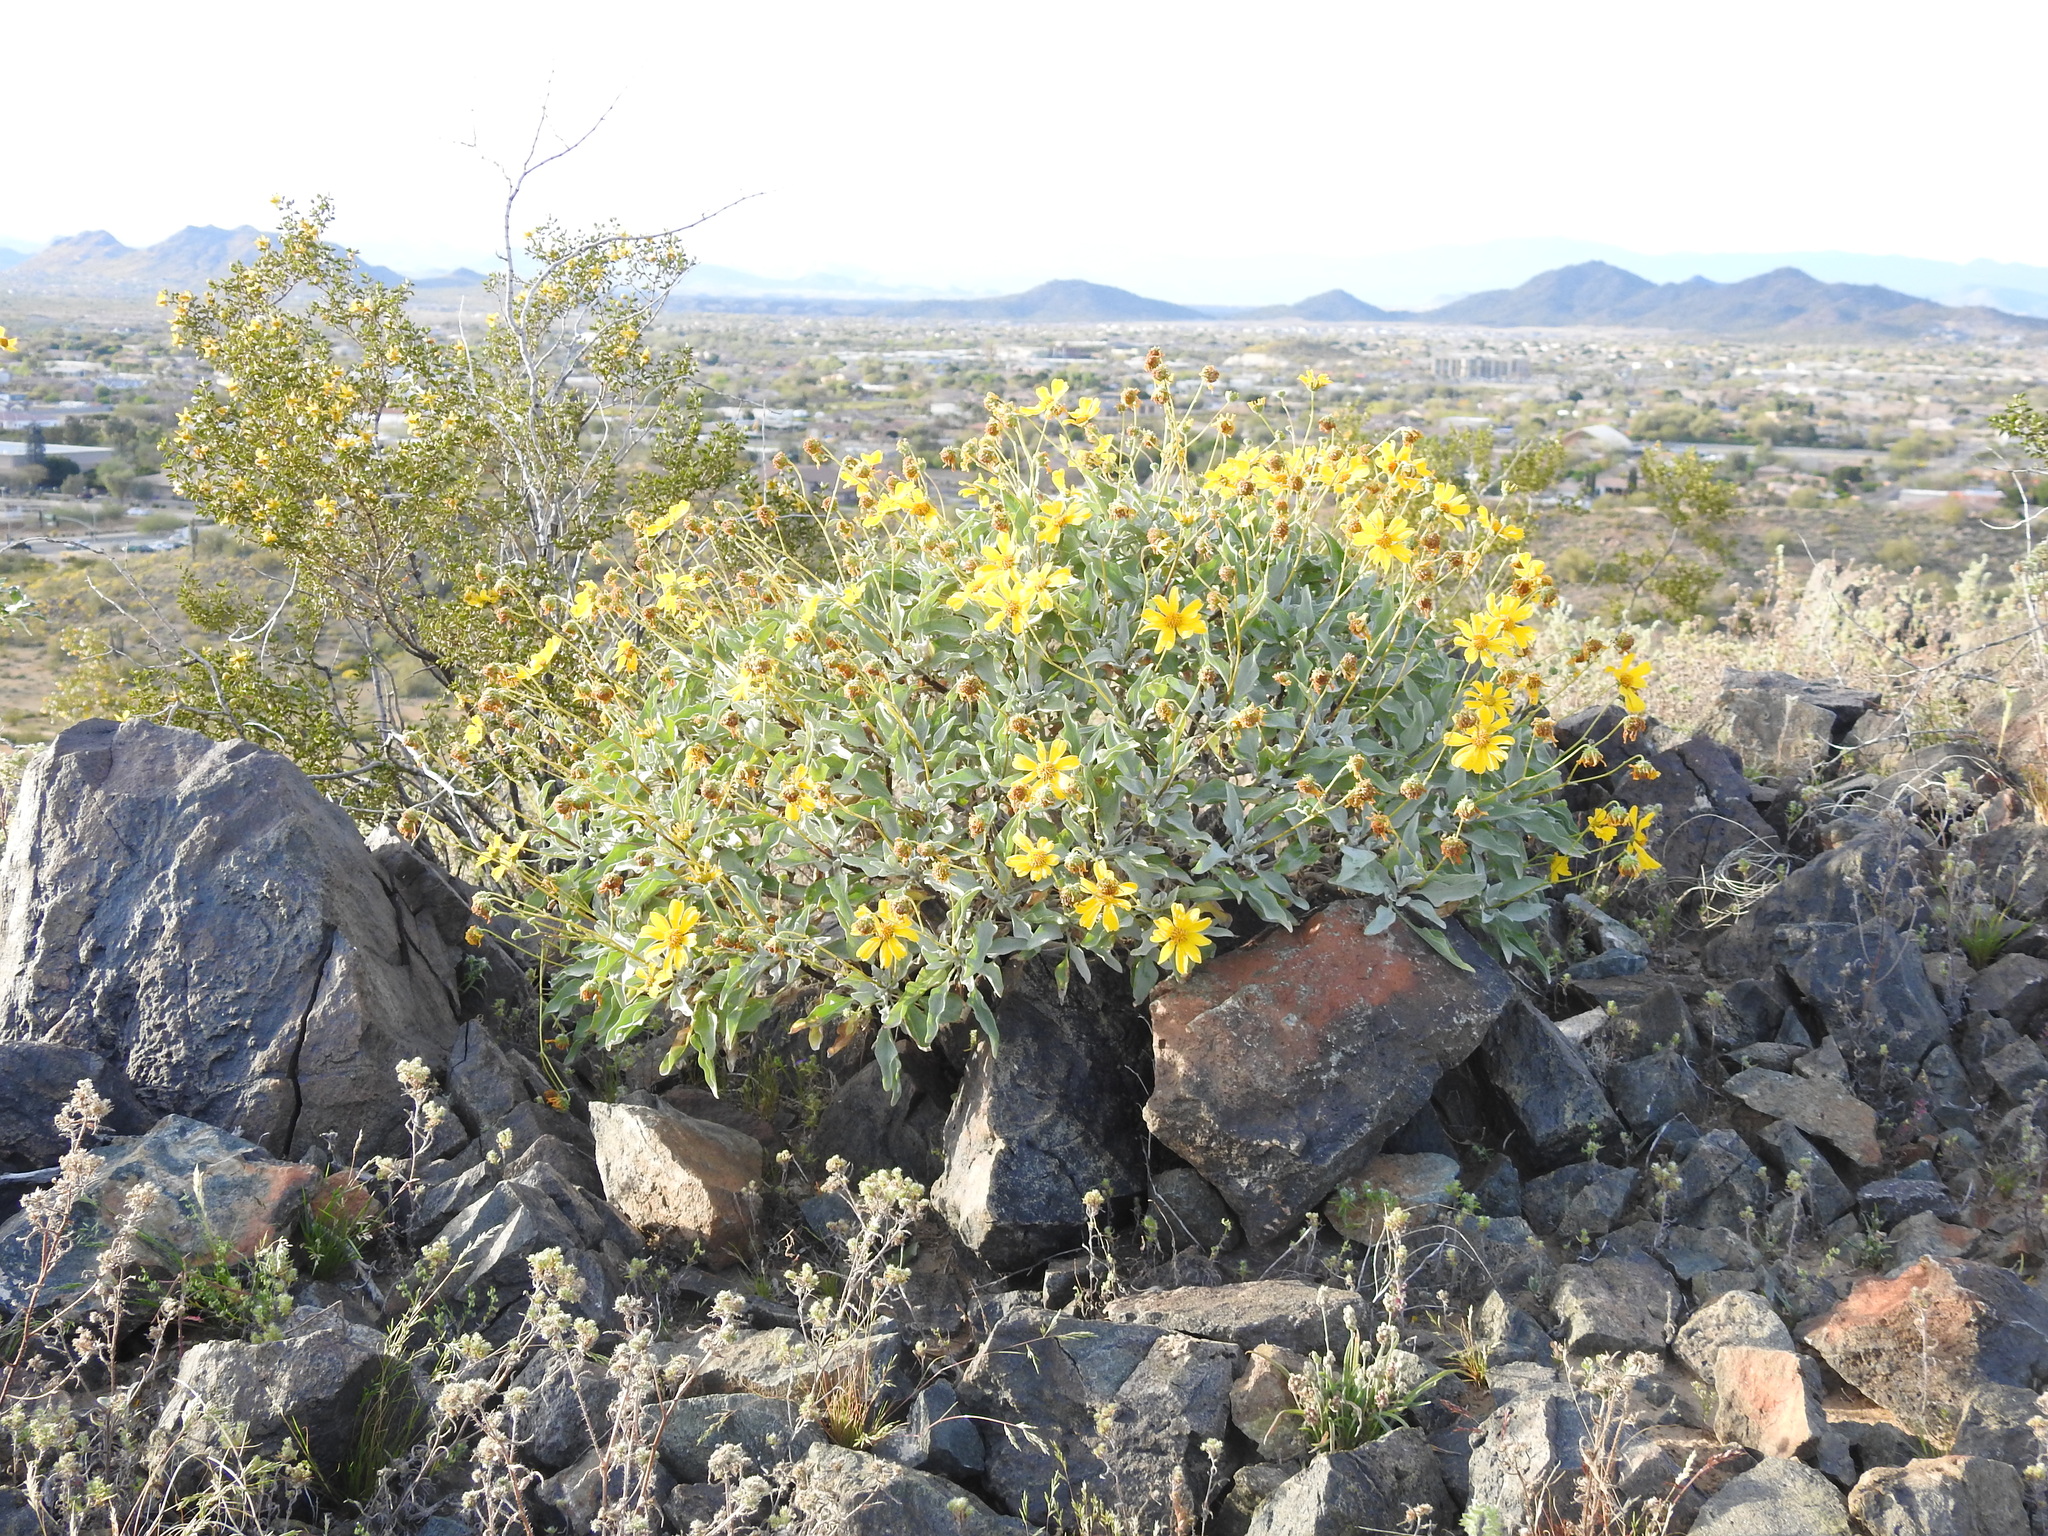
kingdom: Plantae
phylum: Tracheophyta
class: Magnoliopsida
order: Asterales
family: Asteraceae
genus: Encelia
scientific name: Encelia farinosa
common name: Brittlebush
